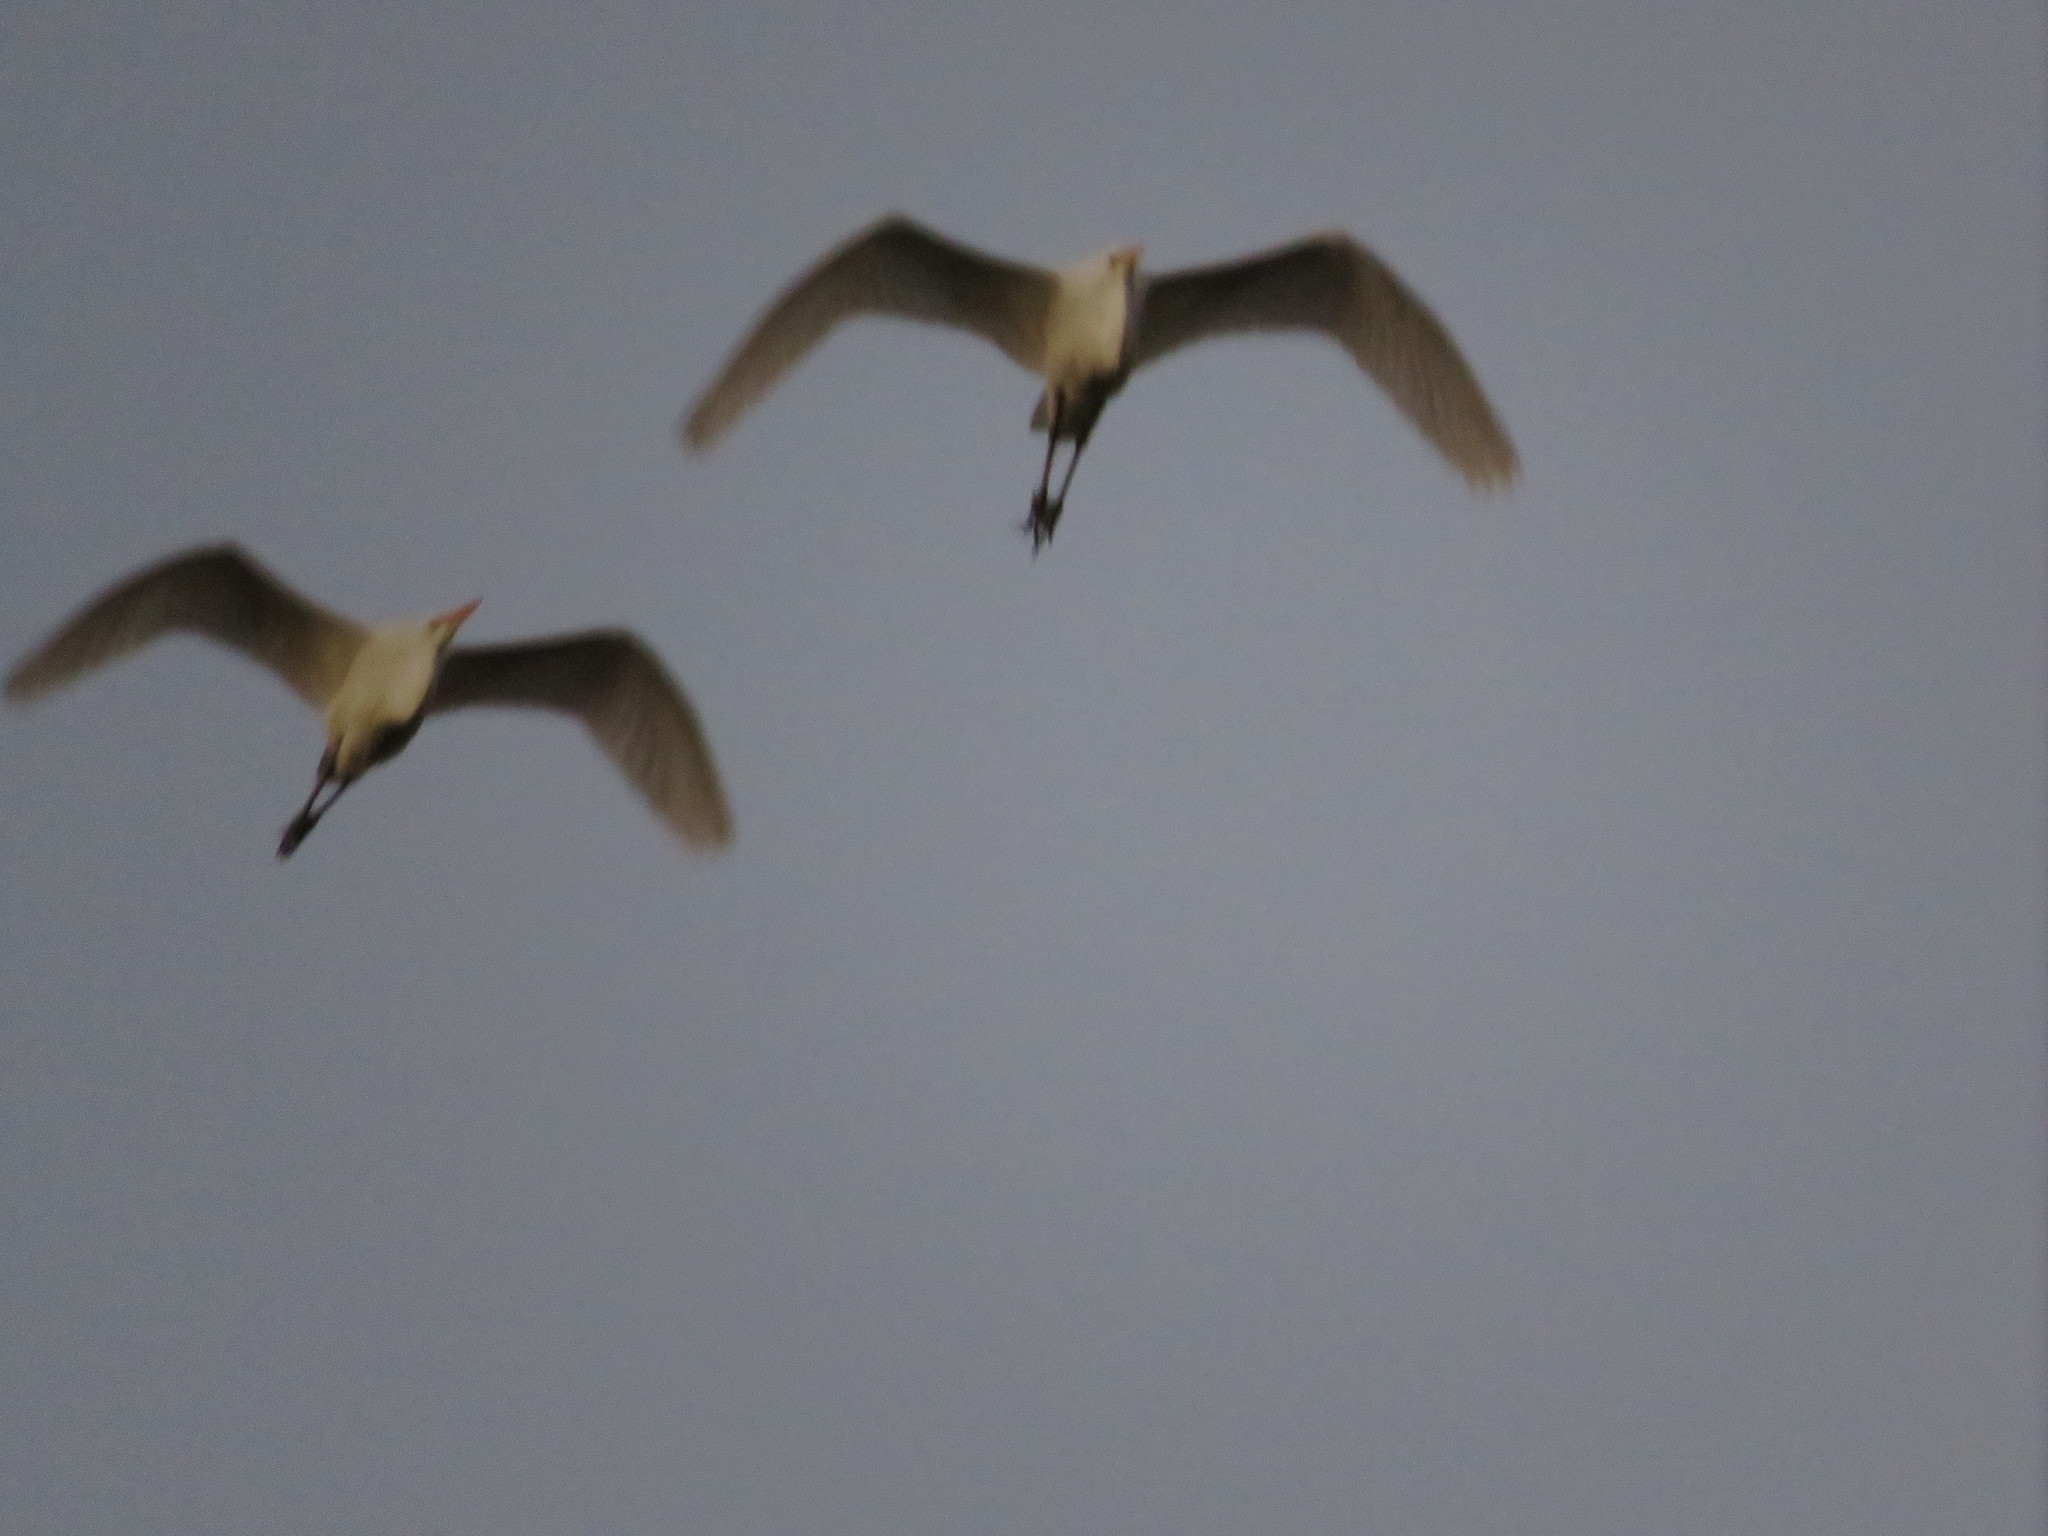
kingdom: Animalia
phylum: Chordata
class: Aves
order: Pelecaniformes
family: Ardeidae
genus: Ardea
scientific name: Ardea alba
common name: Great egret
